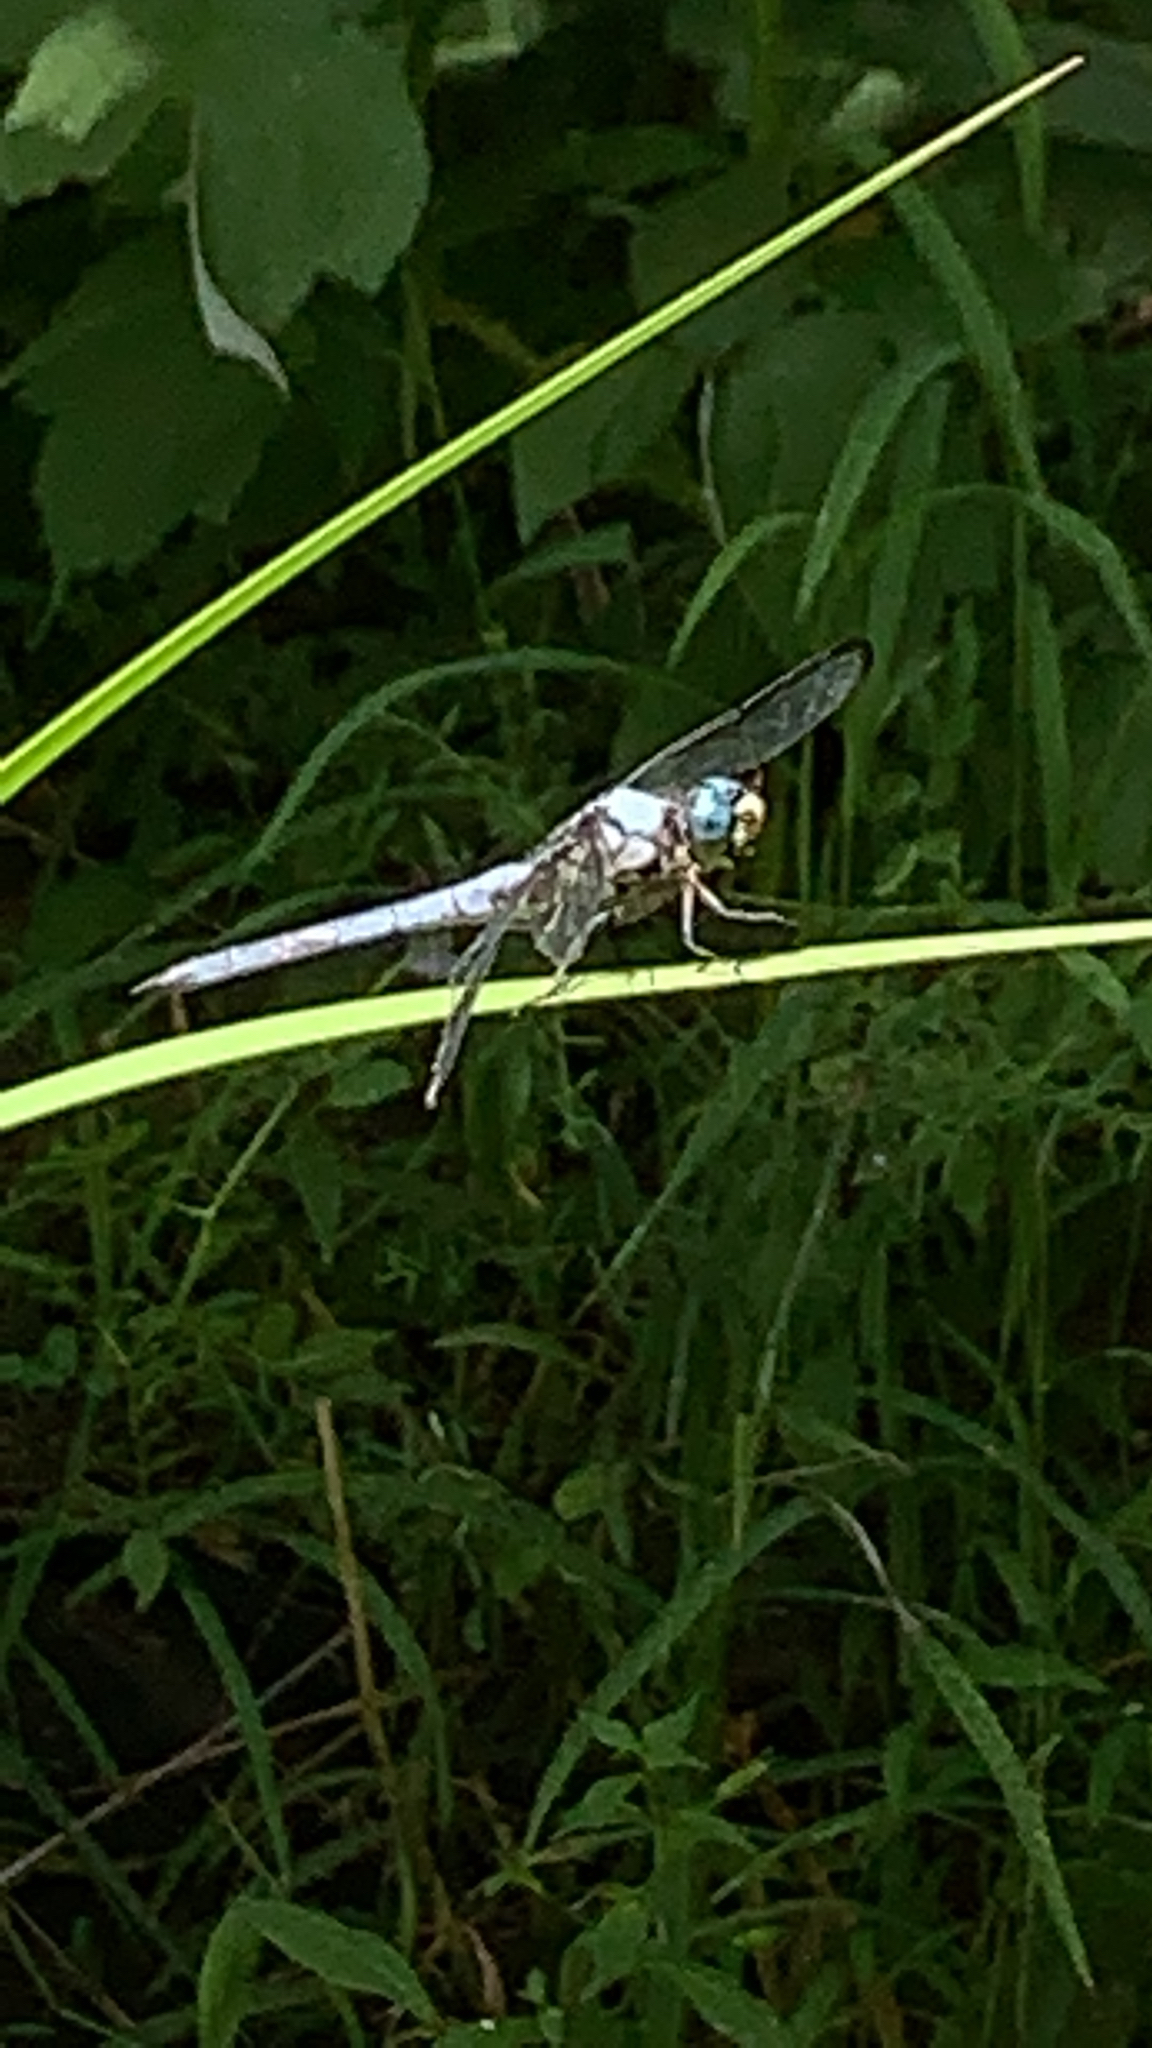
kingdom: Animalia
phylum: Arthropoda
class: Insecta
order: Odonata
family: Libellulidae
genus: Libellula
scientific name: Libellula vibrans
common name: Great blue skimmer
